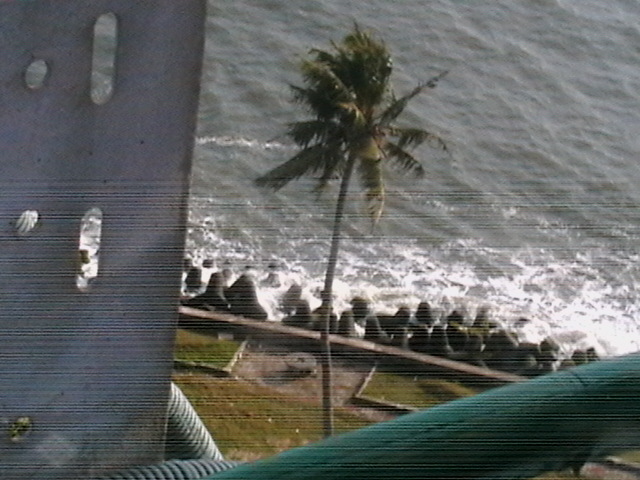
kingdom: Plantae
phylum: Tracheophyta
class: Liliopsida
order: Arecales
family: Arecaceae
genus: Cocos
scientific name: Cocos nucifera
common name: Coconut palm
